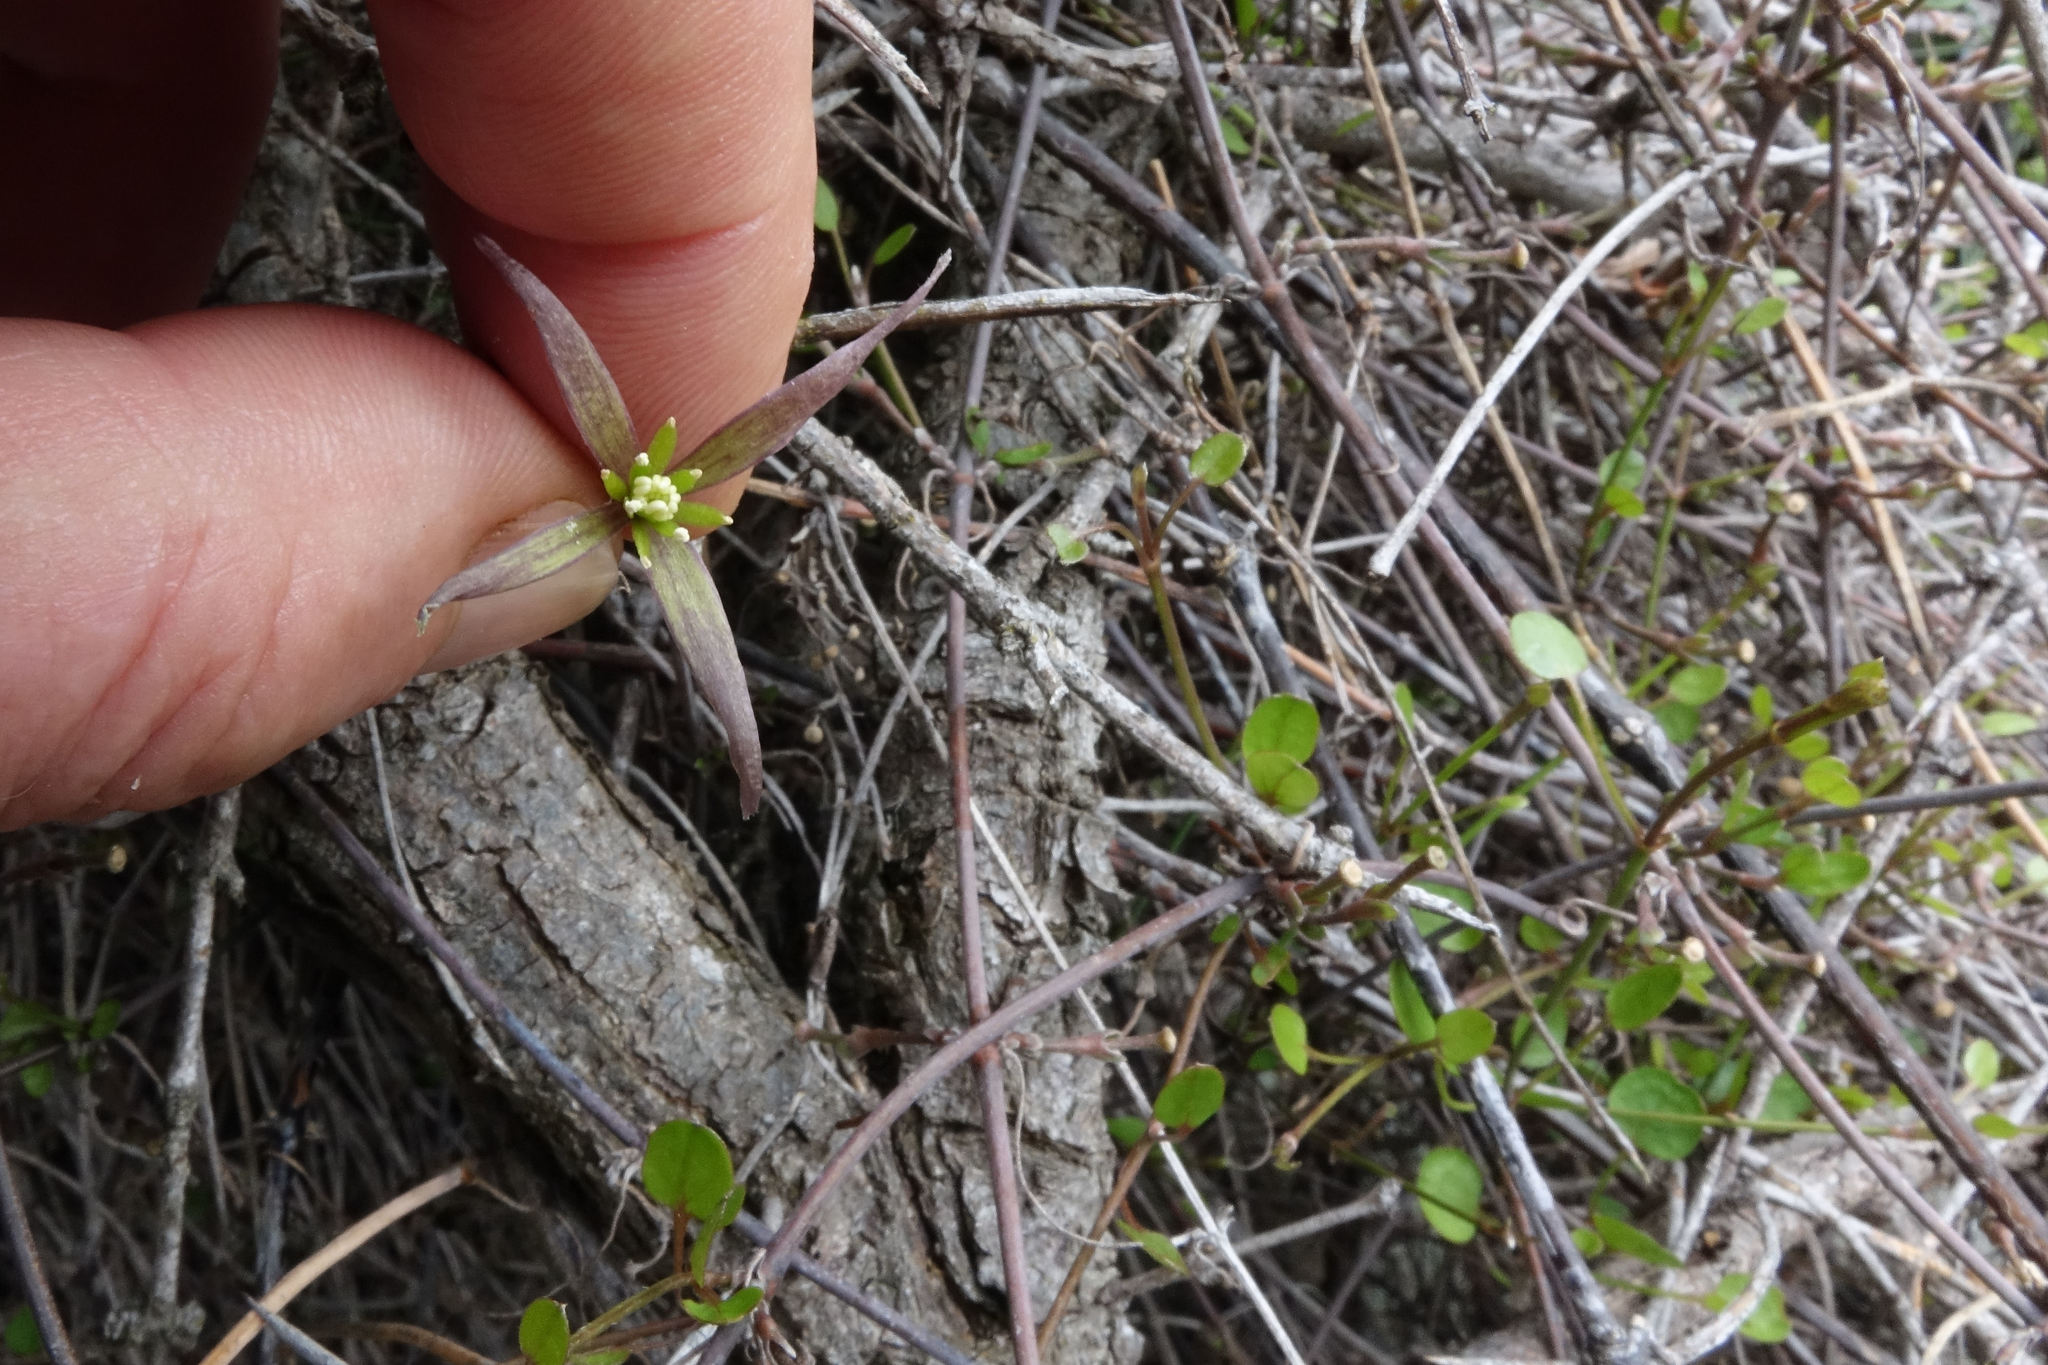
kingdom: Plantae
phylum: Tracheophyta
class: Magnoliopsida
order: Ranunculales
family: Ranunculaceae
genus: Clematis
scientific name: Clematis quadribracteolata
